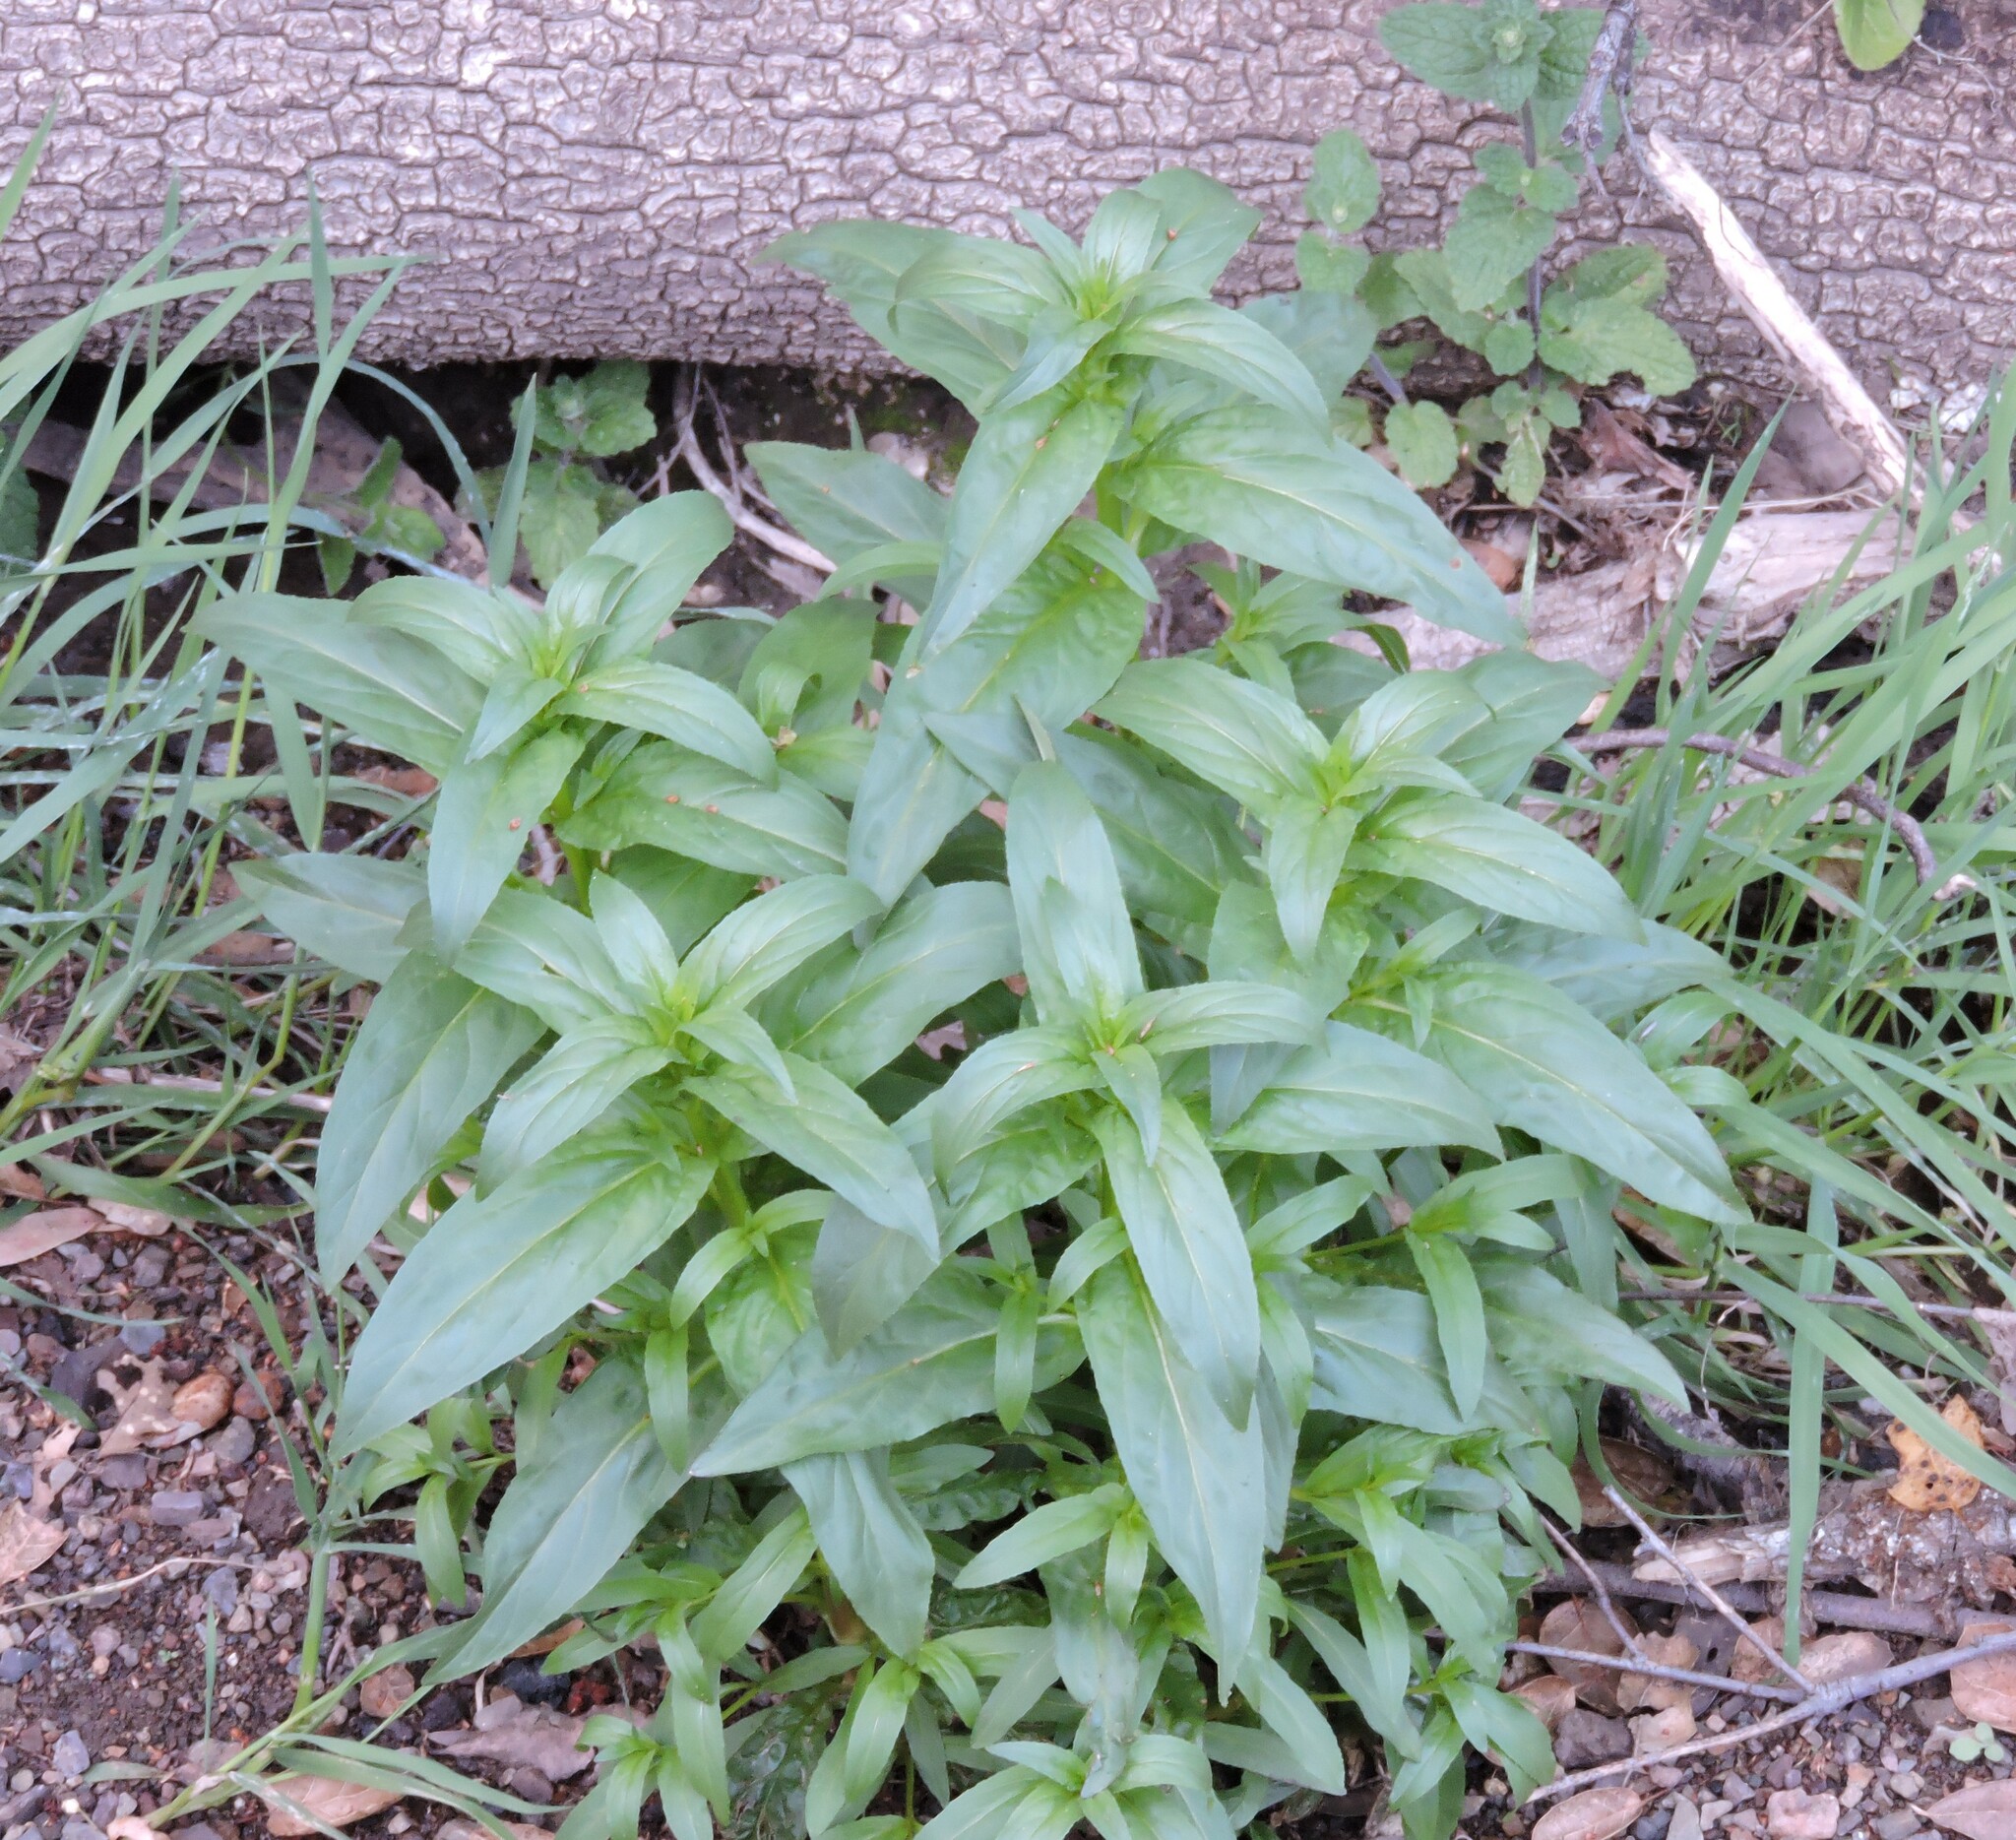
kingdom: Plantae
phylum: Tracheophyta
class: Magnoliopsida
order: Myrtales
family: Onagraceae
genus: Epilobium
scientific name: Epilobium ciliatum
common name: American willowherb
